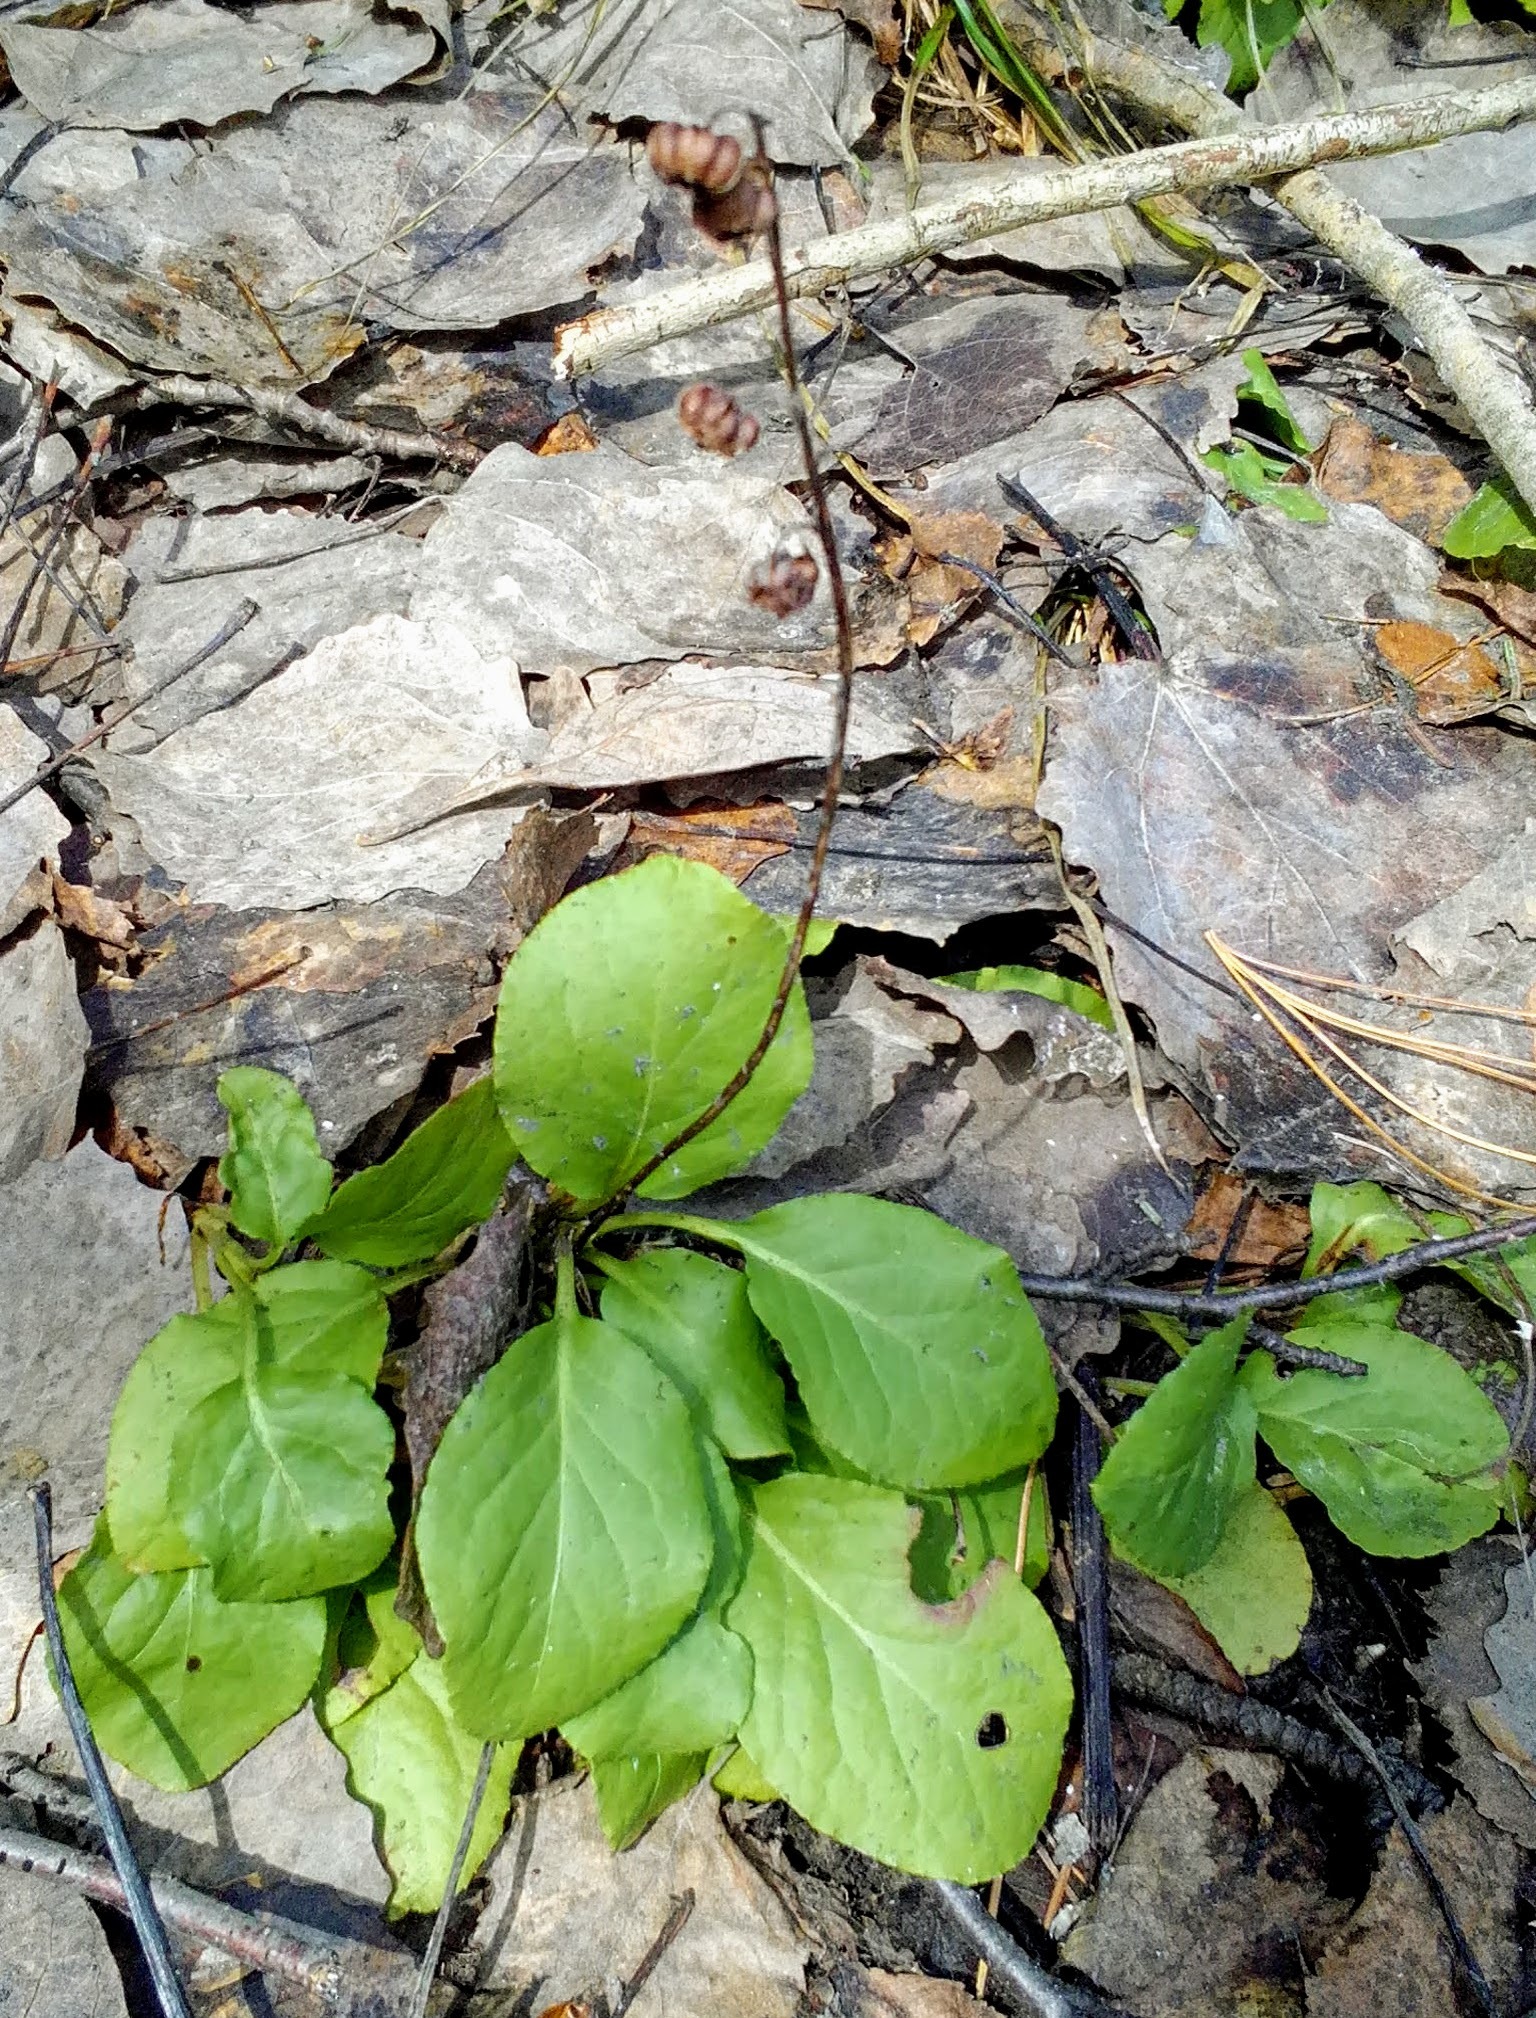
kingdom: Plantae
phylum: Tracheophyta
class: Magnoliopsida
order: Ericales
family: Ericaceae
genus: Pyrola
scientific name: Pyrola minor
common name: Common wintergreen
